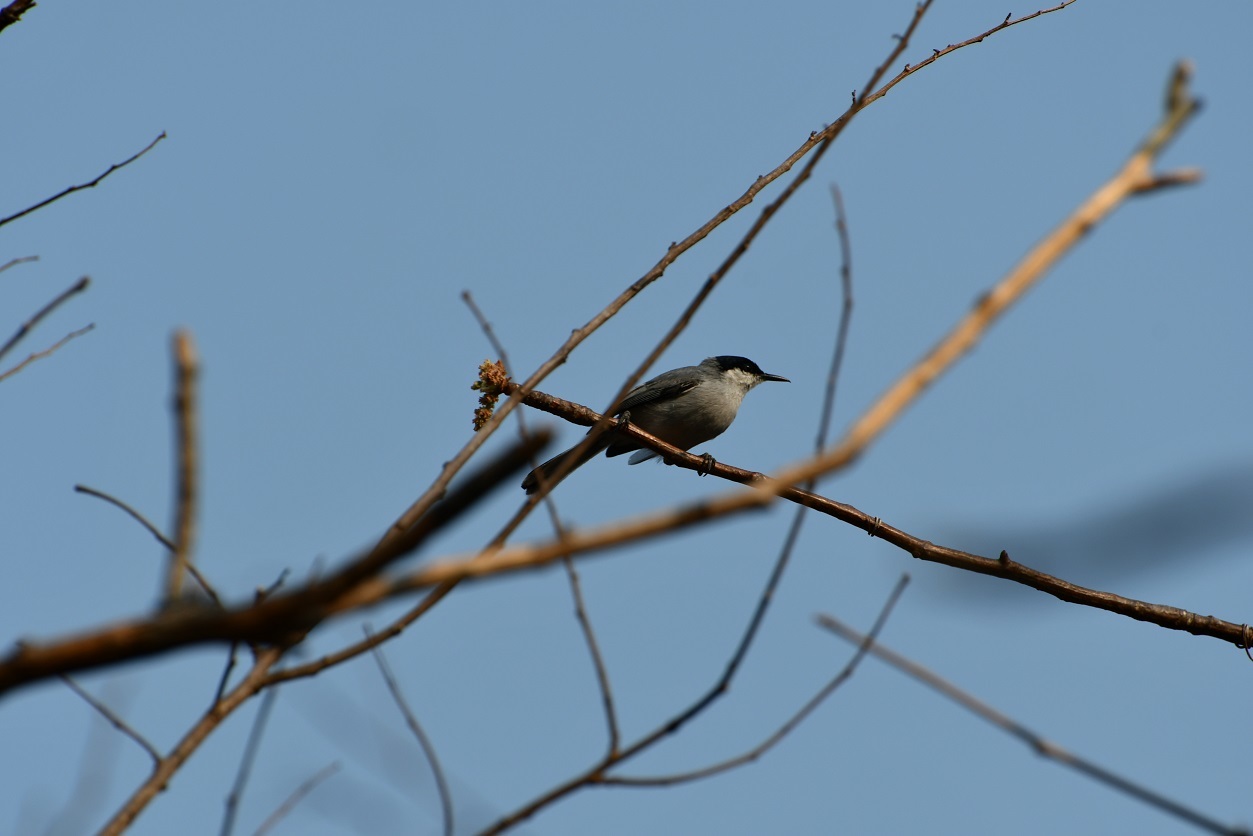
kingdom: Animalia
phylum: Chordata
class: Aves
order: Passeriformes
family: Polioptilidae
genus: Polioptila
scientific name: Polioptila albiloris
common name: White-lored gnatcatcher
